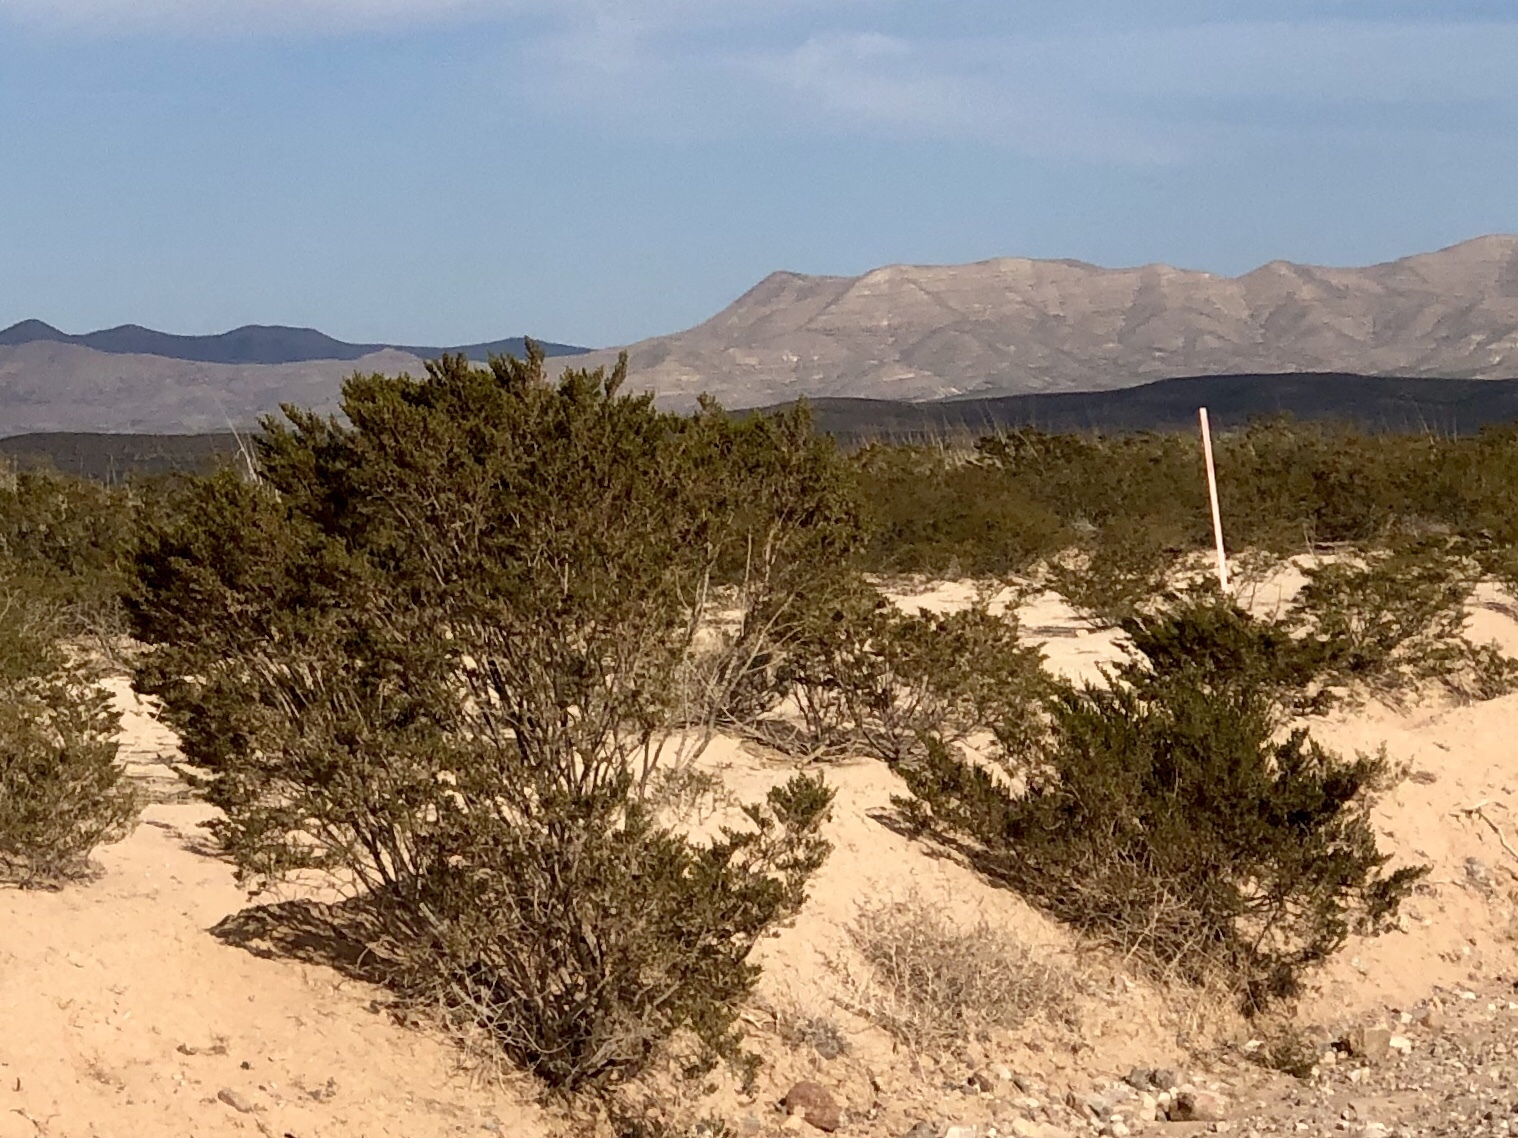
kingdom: Plantae
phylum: Tracheophyta
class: Magnoliopsida
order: Zygophyllales
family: Zygophyllaceae
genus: Larrea
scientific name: Larrea tridentata
